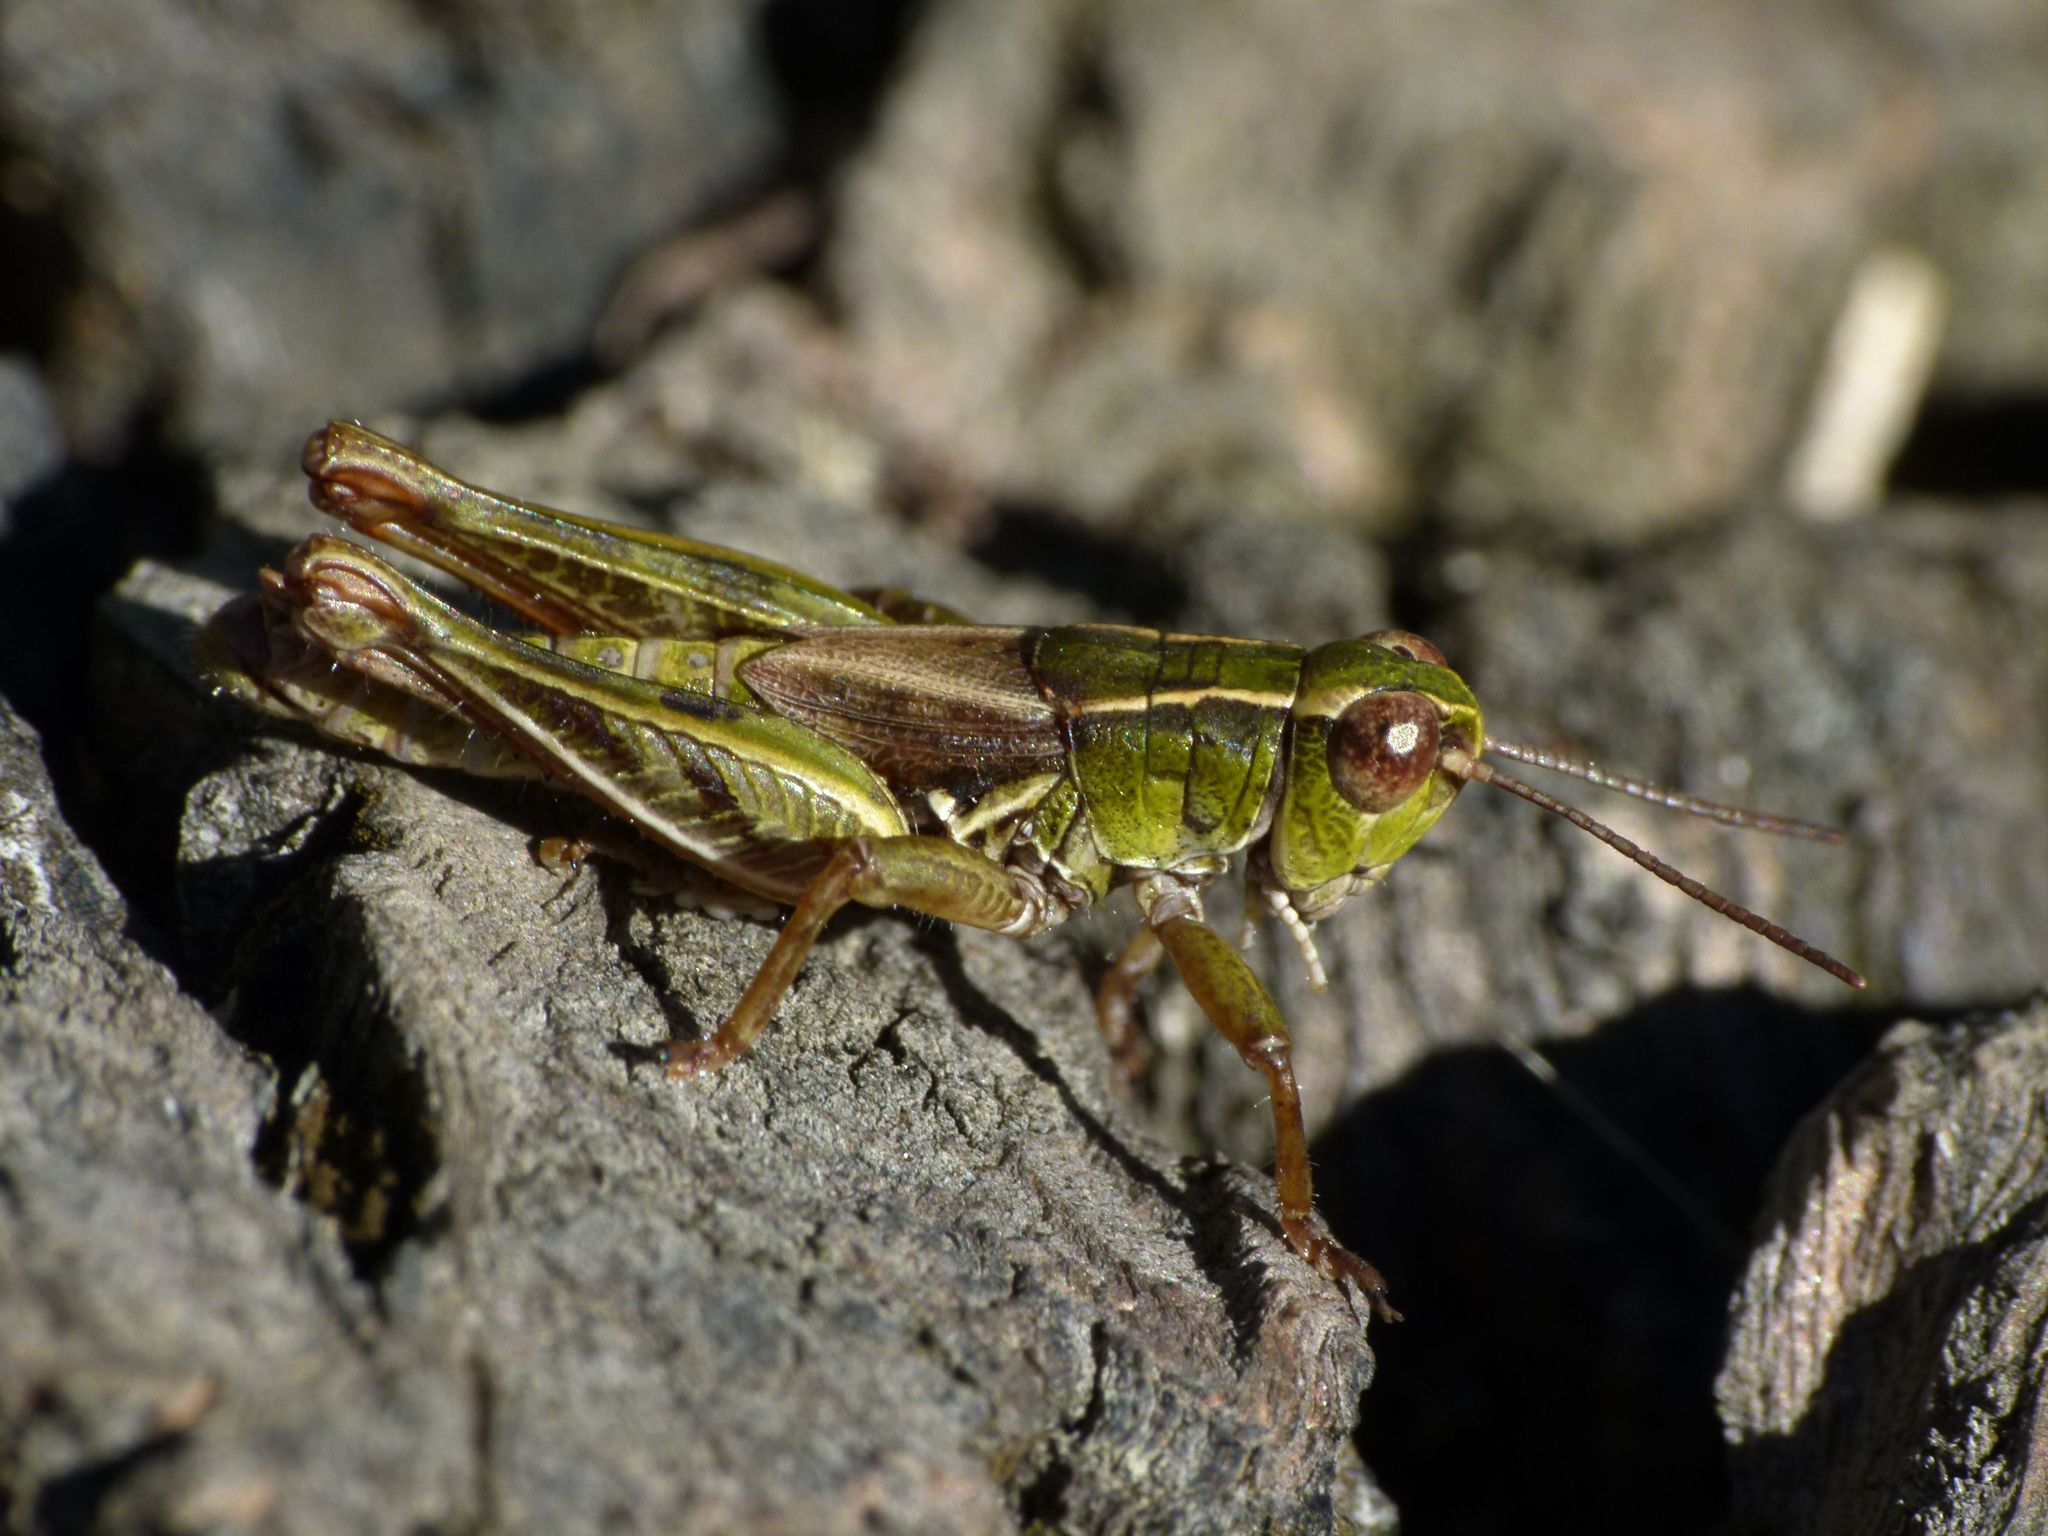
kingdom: Animalia
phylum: Arthropoda
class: Insecta
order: Orthoptera
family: Acrididae
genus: Phaulacridium
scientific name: Phaulacridium marginale
